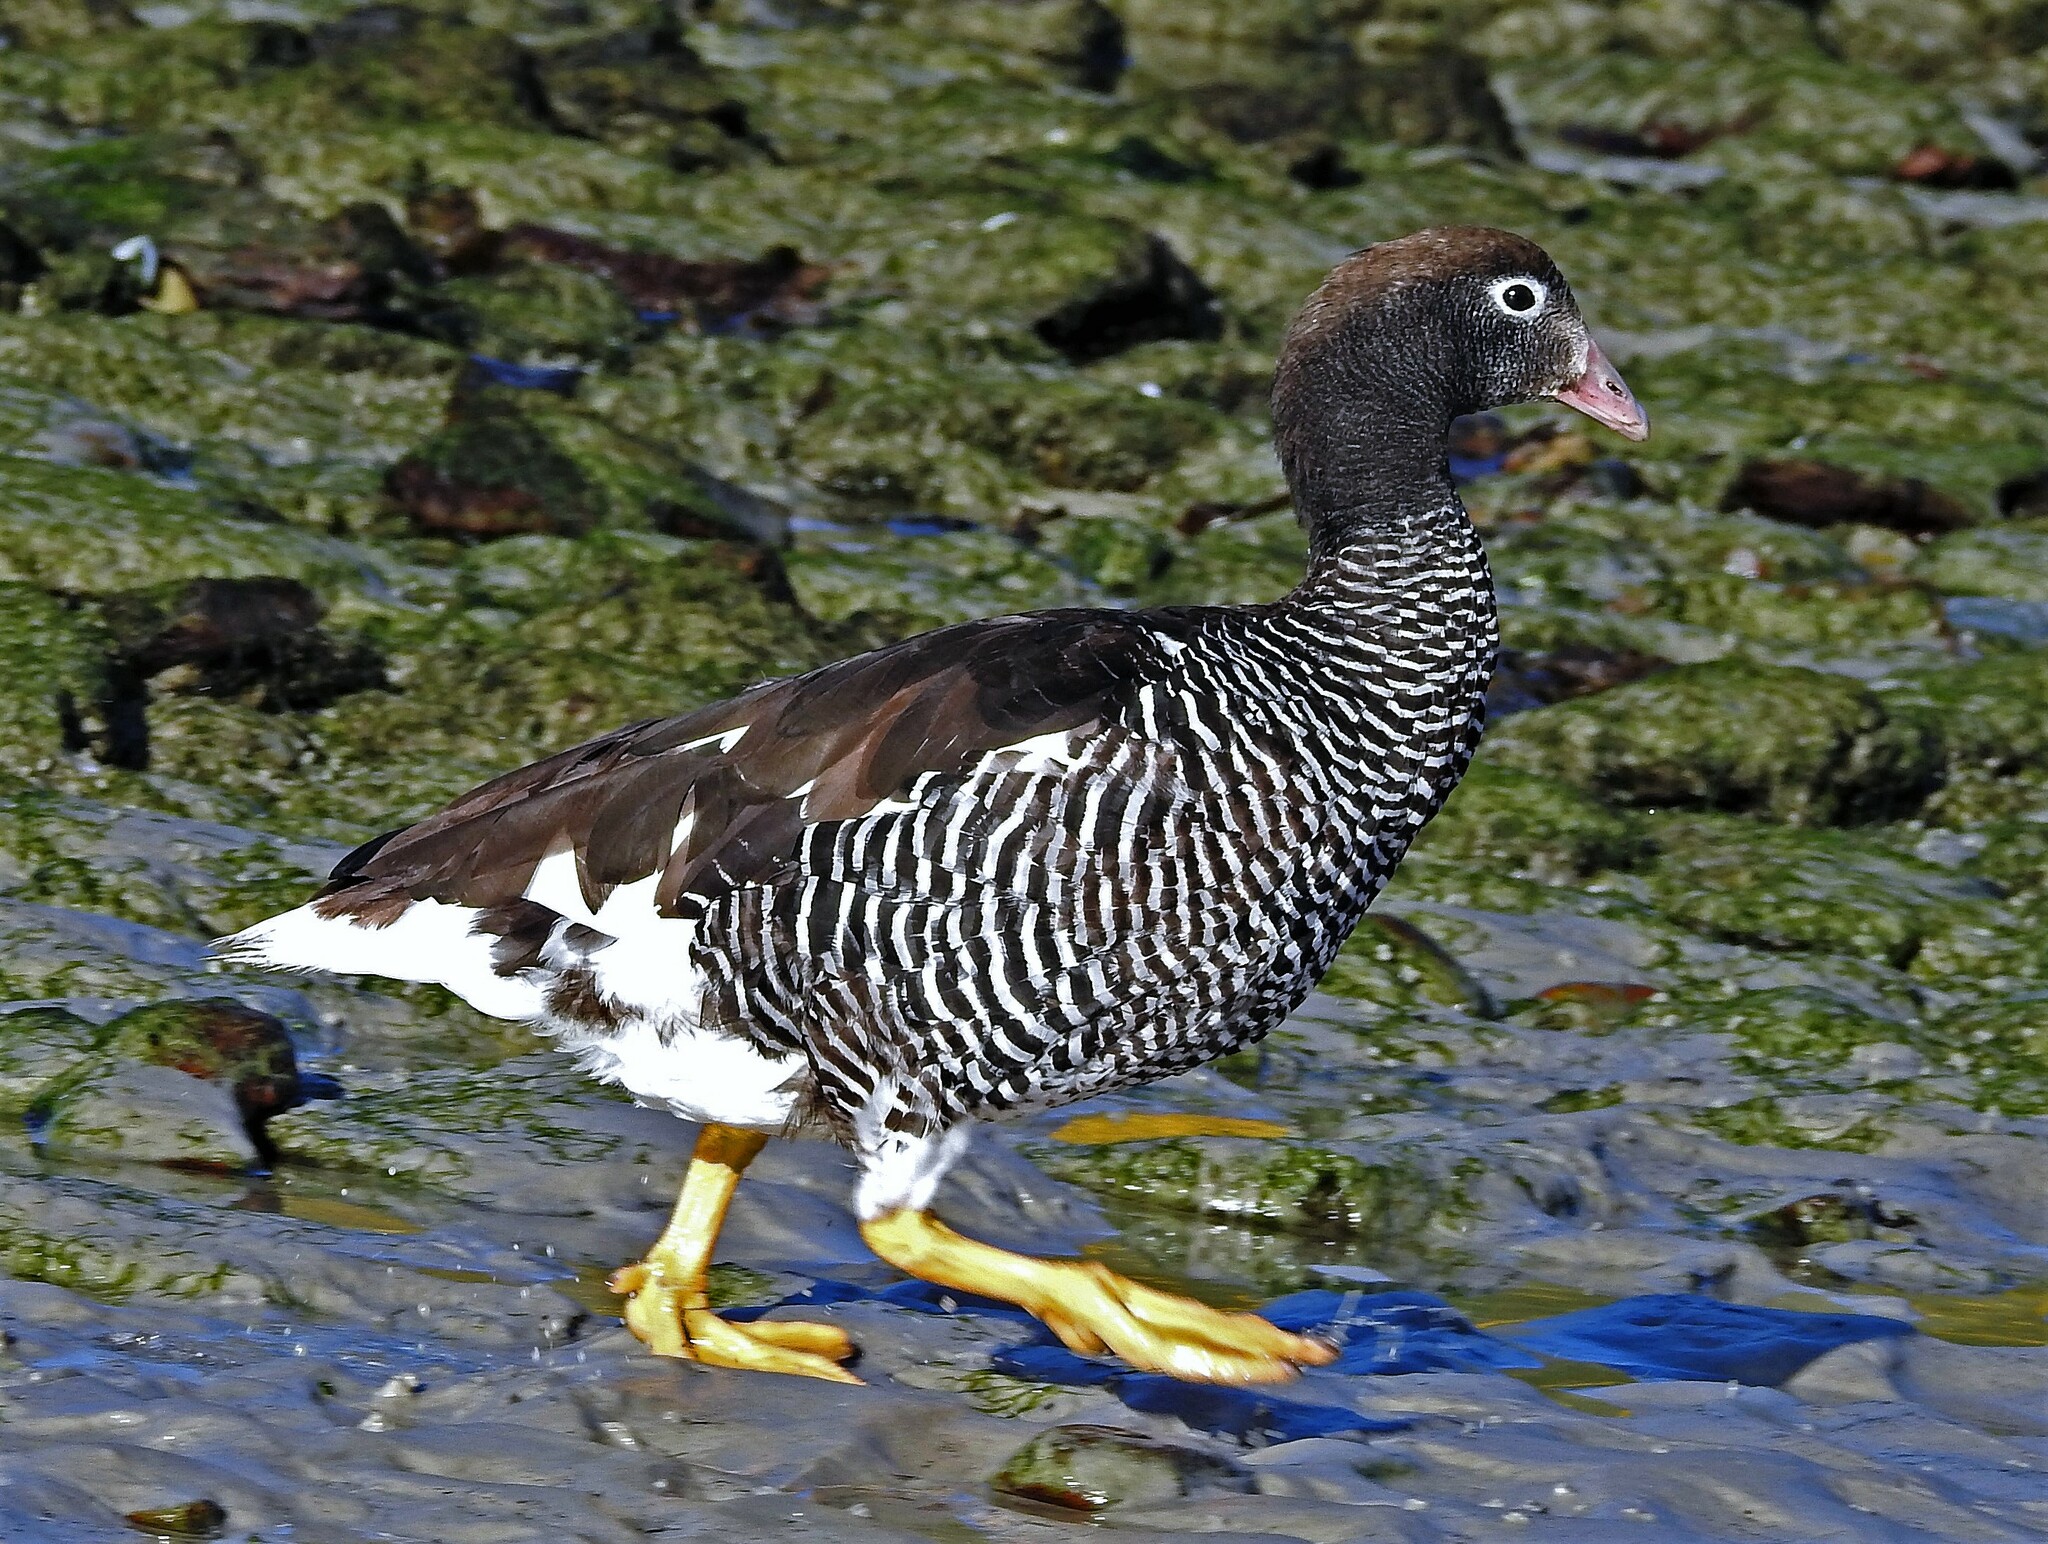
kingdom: Animalia
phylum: Chordata
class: Aves
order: Anseriformes
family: Anatidae
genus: Chloephaga
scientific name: Chloephaga hybrida
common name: Kelp goose
